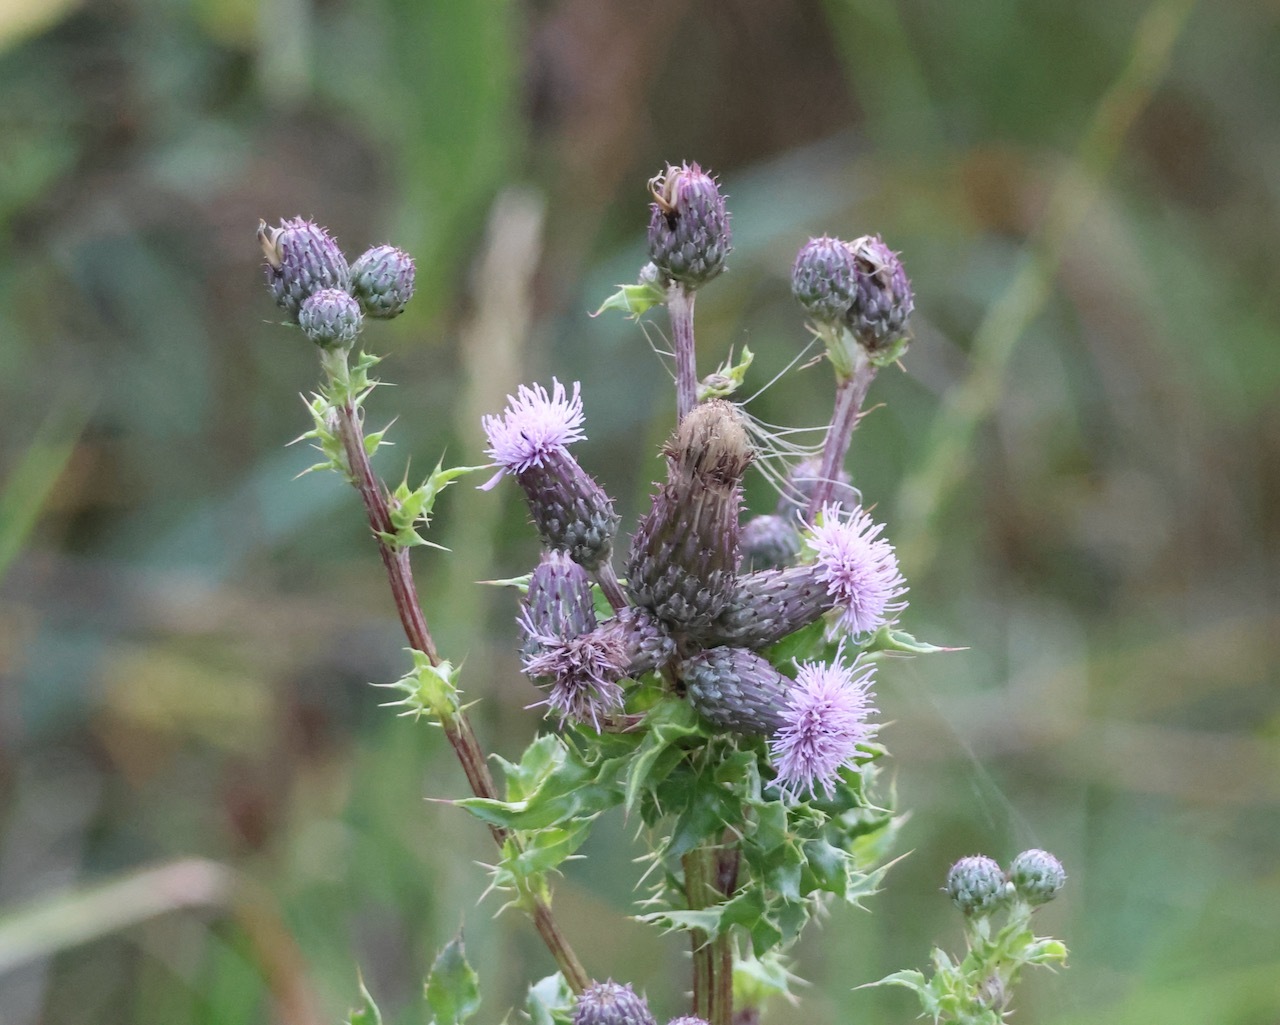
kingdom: Plantae
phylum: Tracheophyta
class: Magnoliopsida
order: Asterales
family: Asteraceae
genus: Cirsium
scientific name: Cirsium arvense
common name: Creeping thistle
